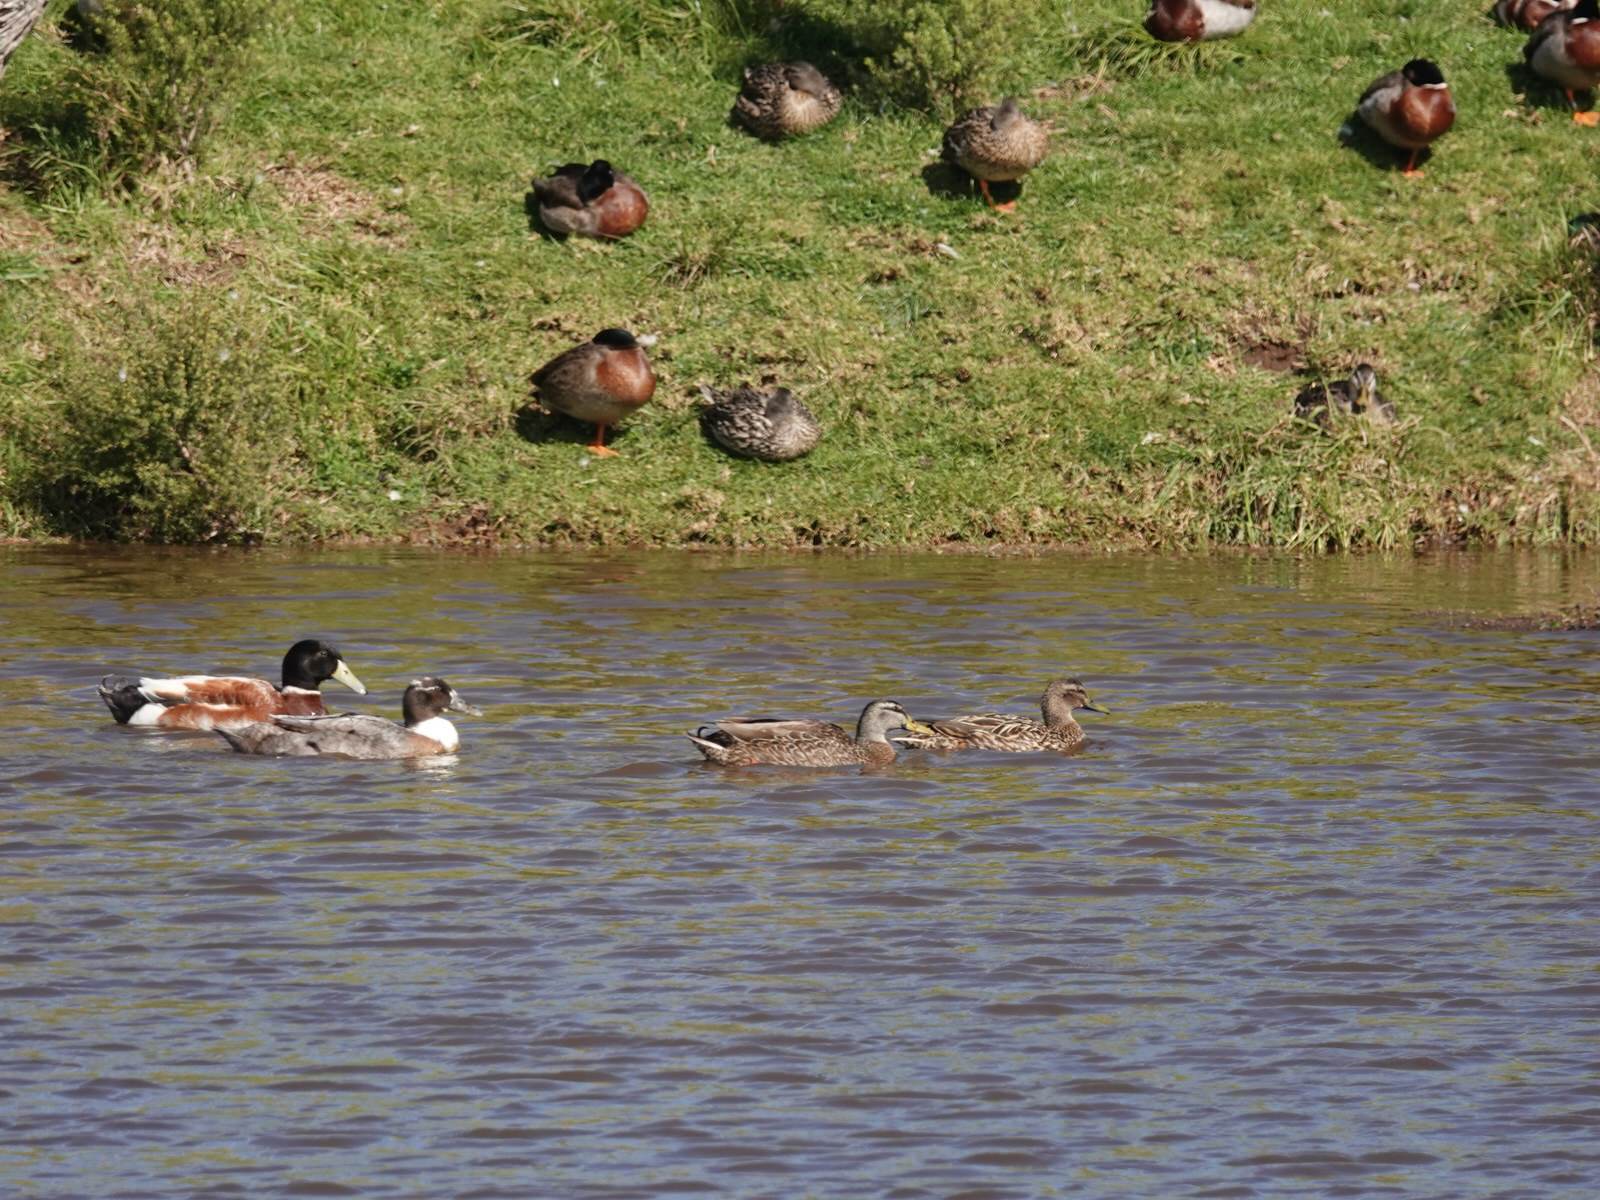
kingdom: Animalia
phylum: Chordata
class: Aves
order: Anseriformes
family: Anatidae
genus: Anas
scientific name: Anas platyrhynchos
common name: Mallard
